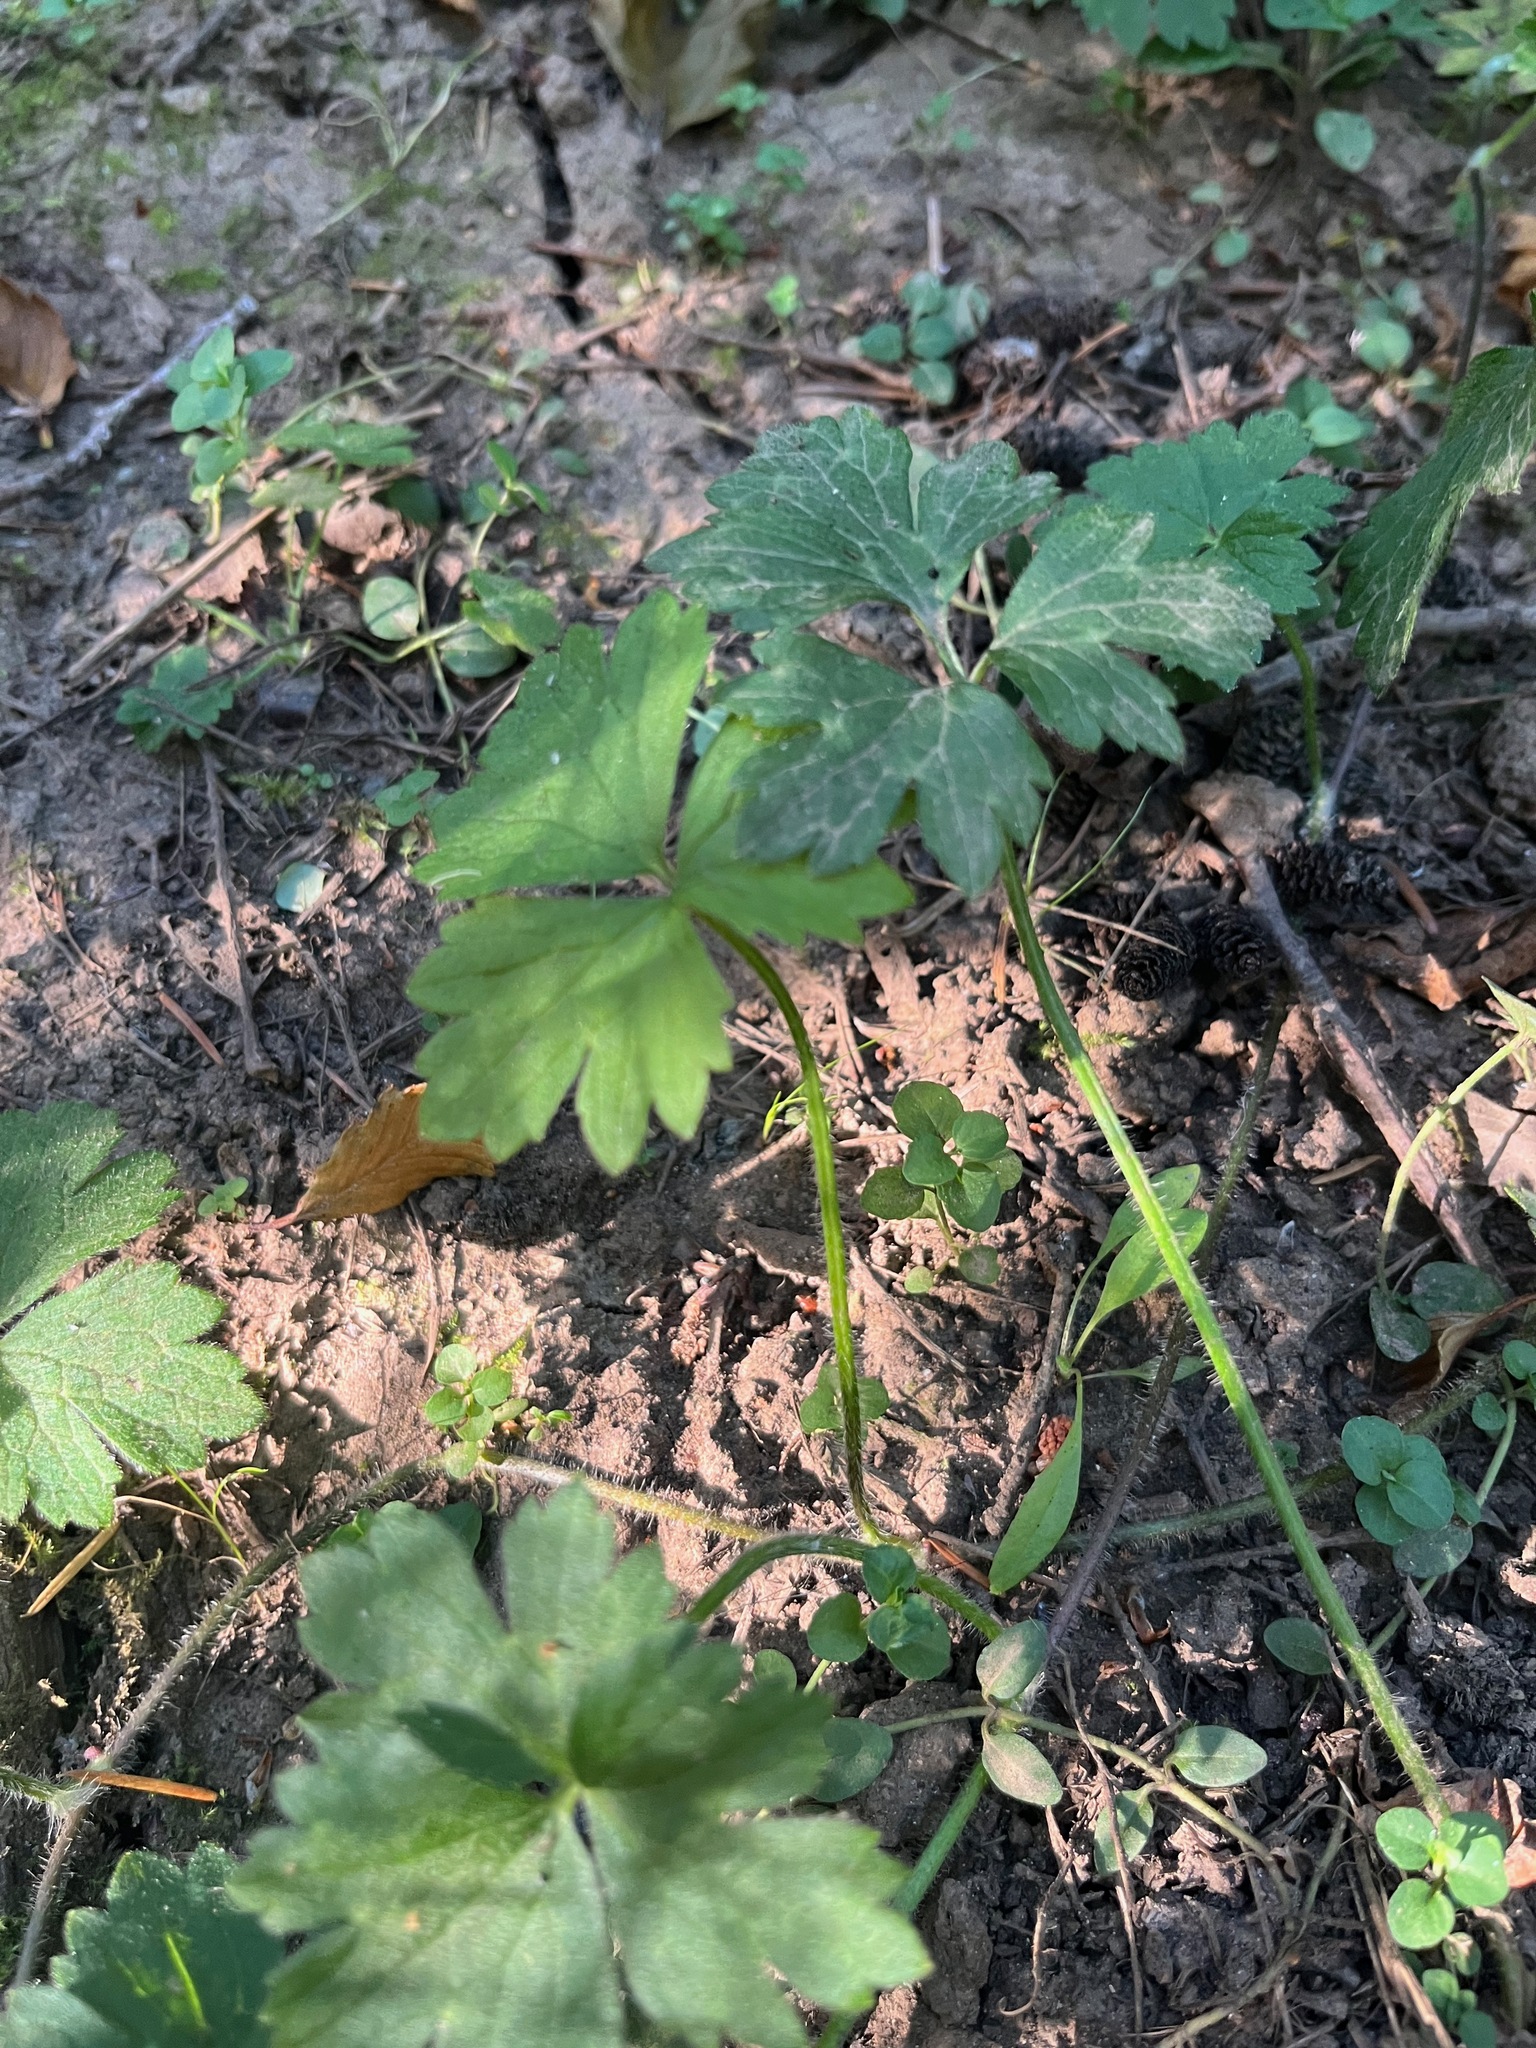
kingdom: Plantae
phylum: Tracheophyta
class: Magnoliopsida
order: Ranunculales
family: Ranunculaceae
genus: Ranunculus
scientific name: Ranunculus repens
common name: Creeping buttercup
